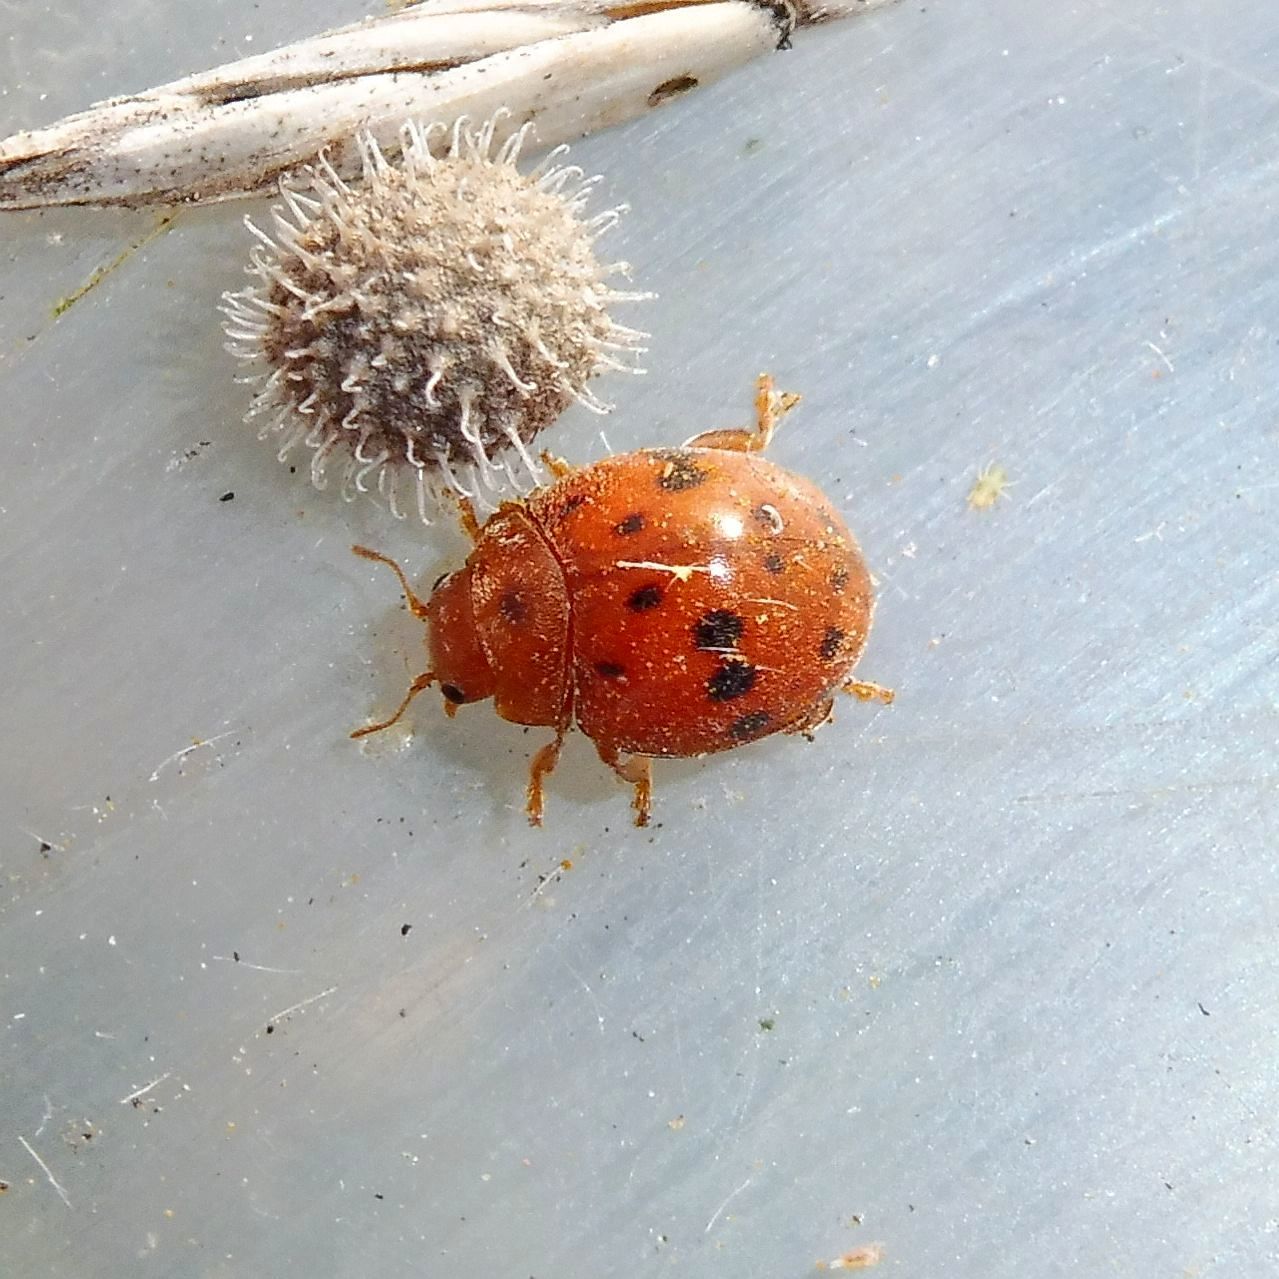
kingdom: Animalia
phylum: Arthropoda
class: Insecta
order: Coleoptera
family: Coccinellidae
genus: Subcoccinella
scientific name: Subcoccinella vigintiquatuorpunctata
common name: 24-spot ladybird
